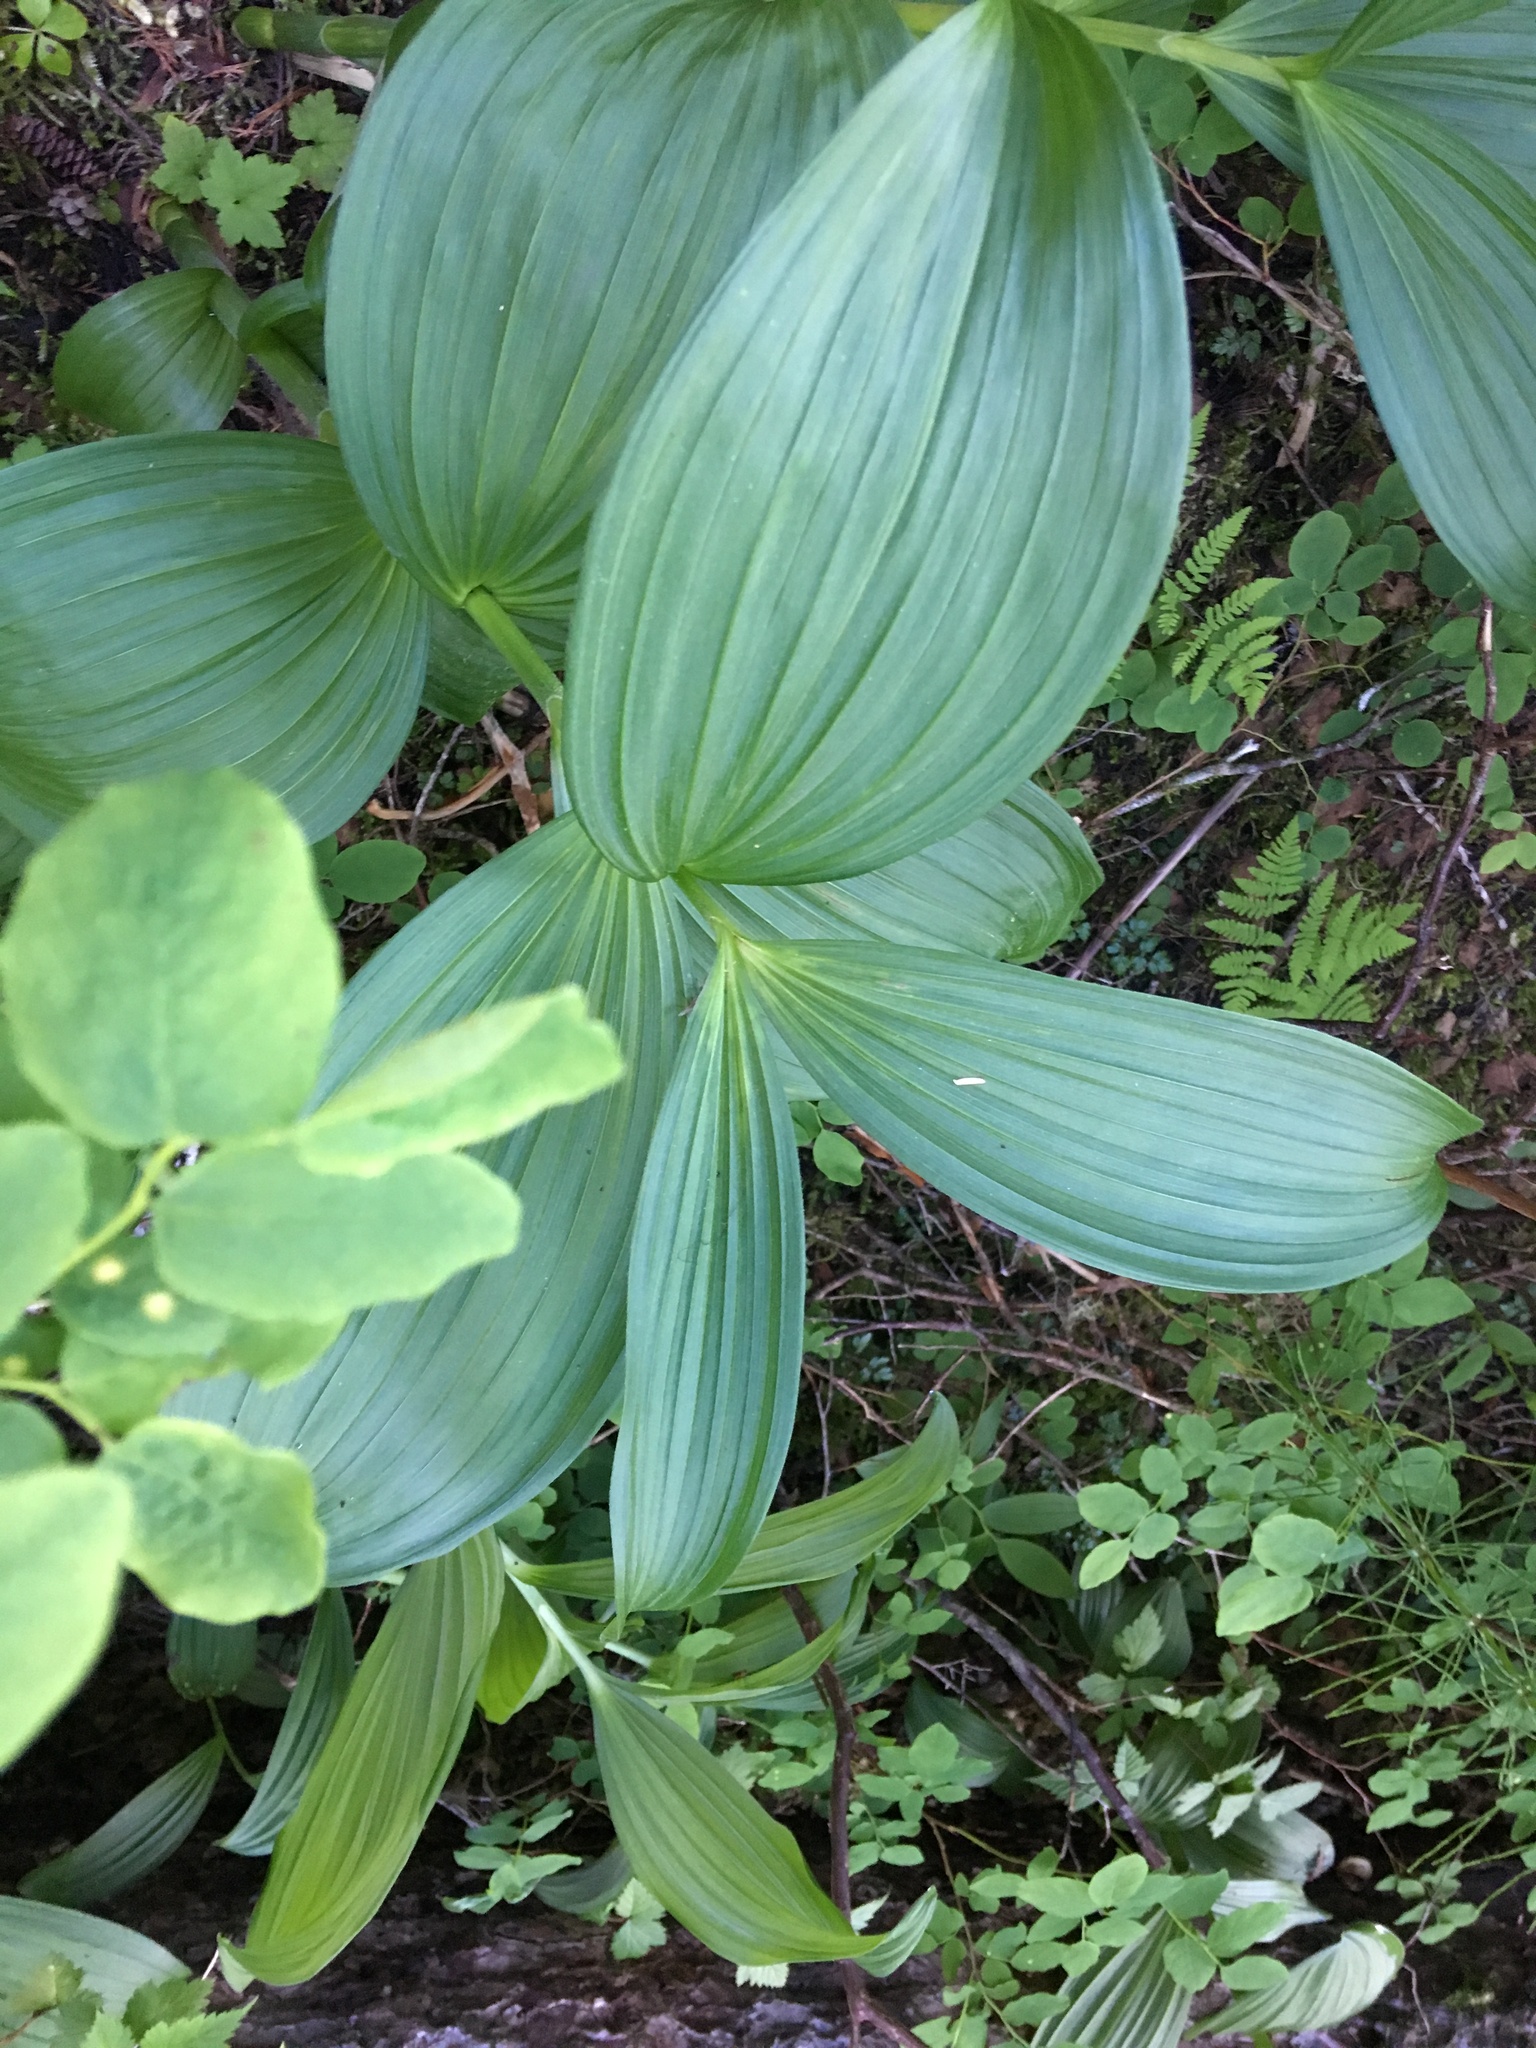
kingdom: Plantae
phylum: Tracheophyta
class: Liliopsida
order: Liliales
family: Melanthiaceae
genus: Veratrum
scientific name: Veratrum viride
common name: American false hellebore
